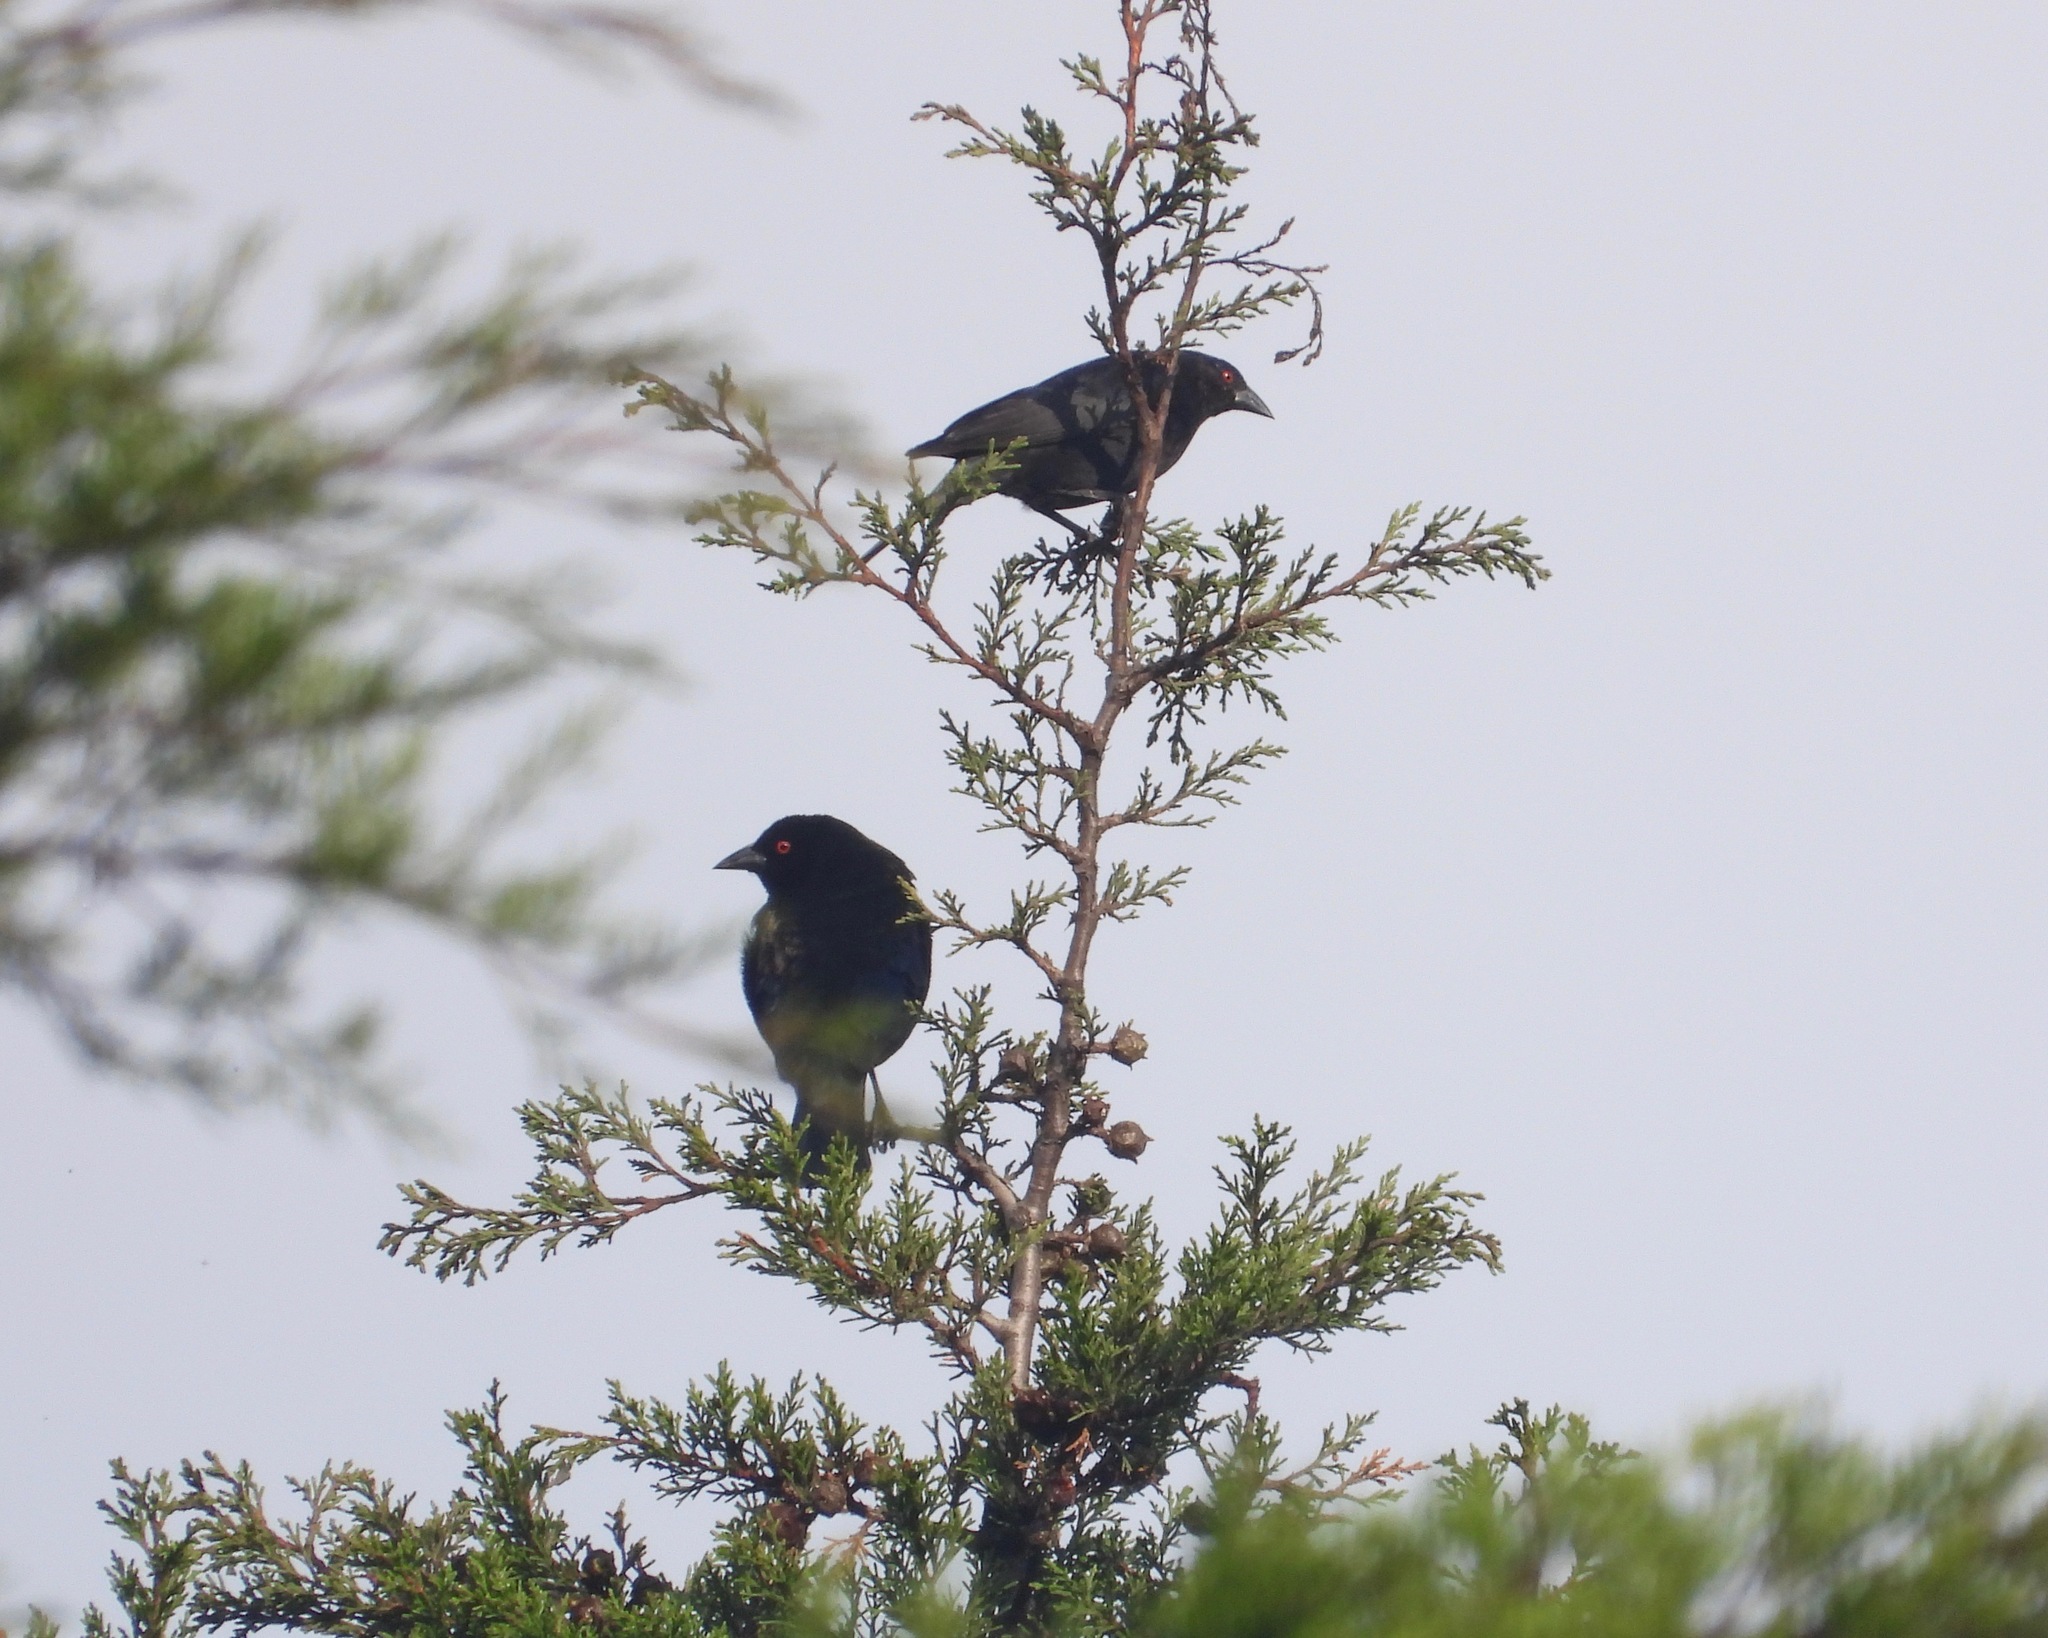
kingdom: Animalia
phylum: Chordata
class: Aves
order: Passeriformes
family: Icteridae
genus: Molothrus
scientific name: Molothrus aeneus
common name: Bronzed cowbird
